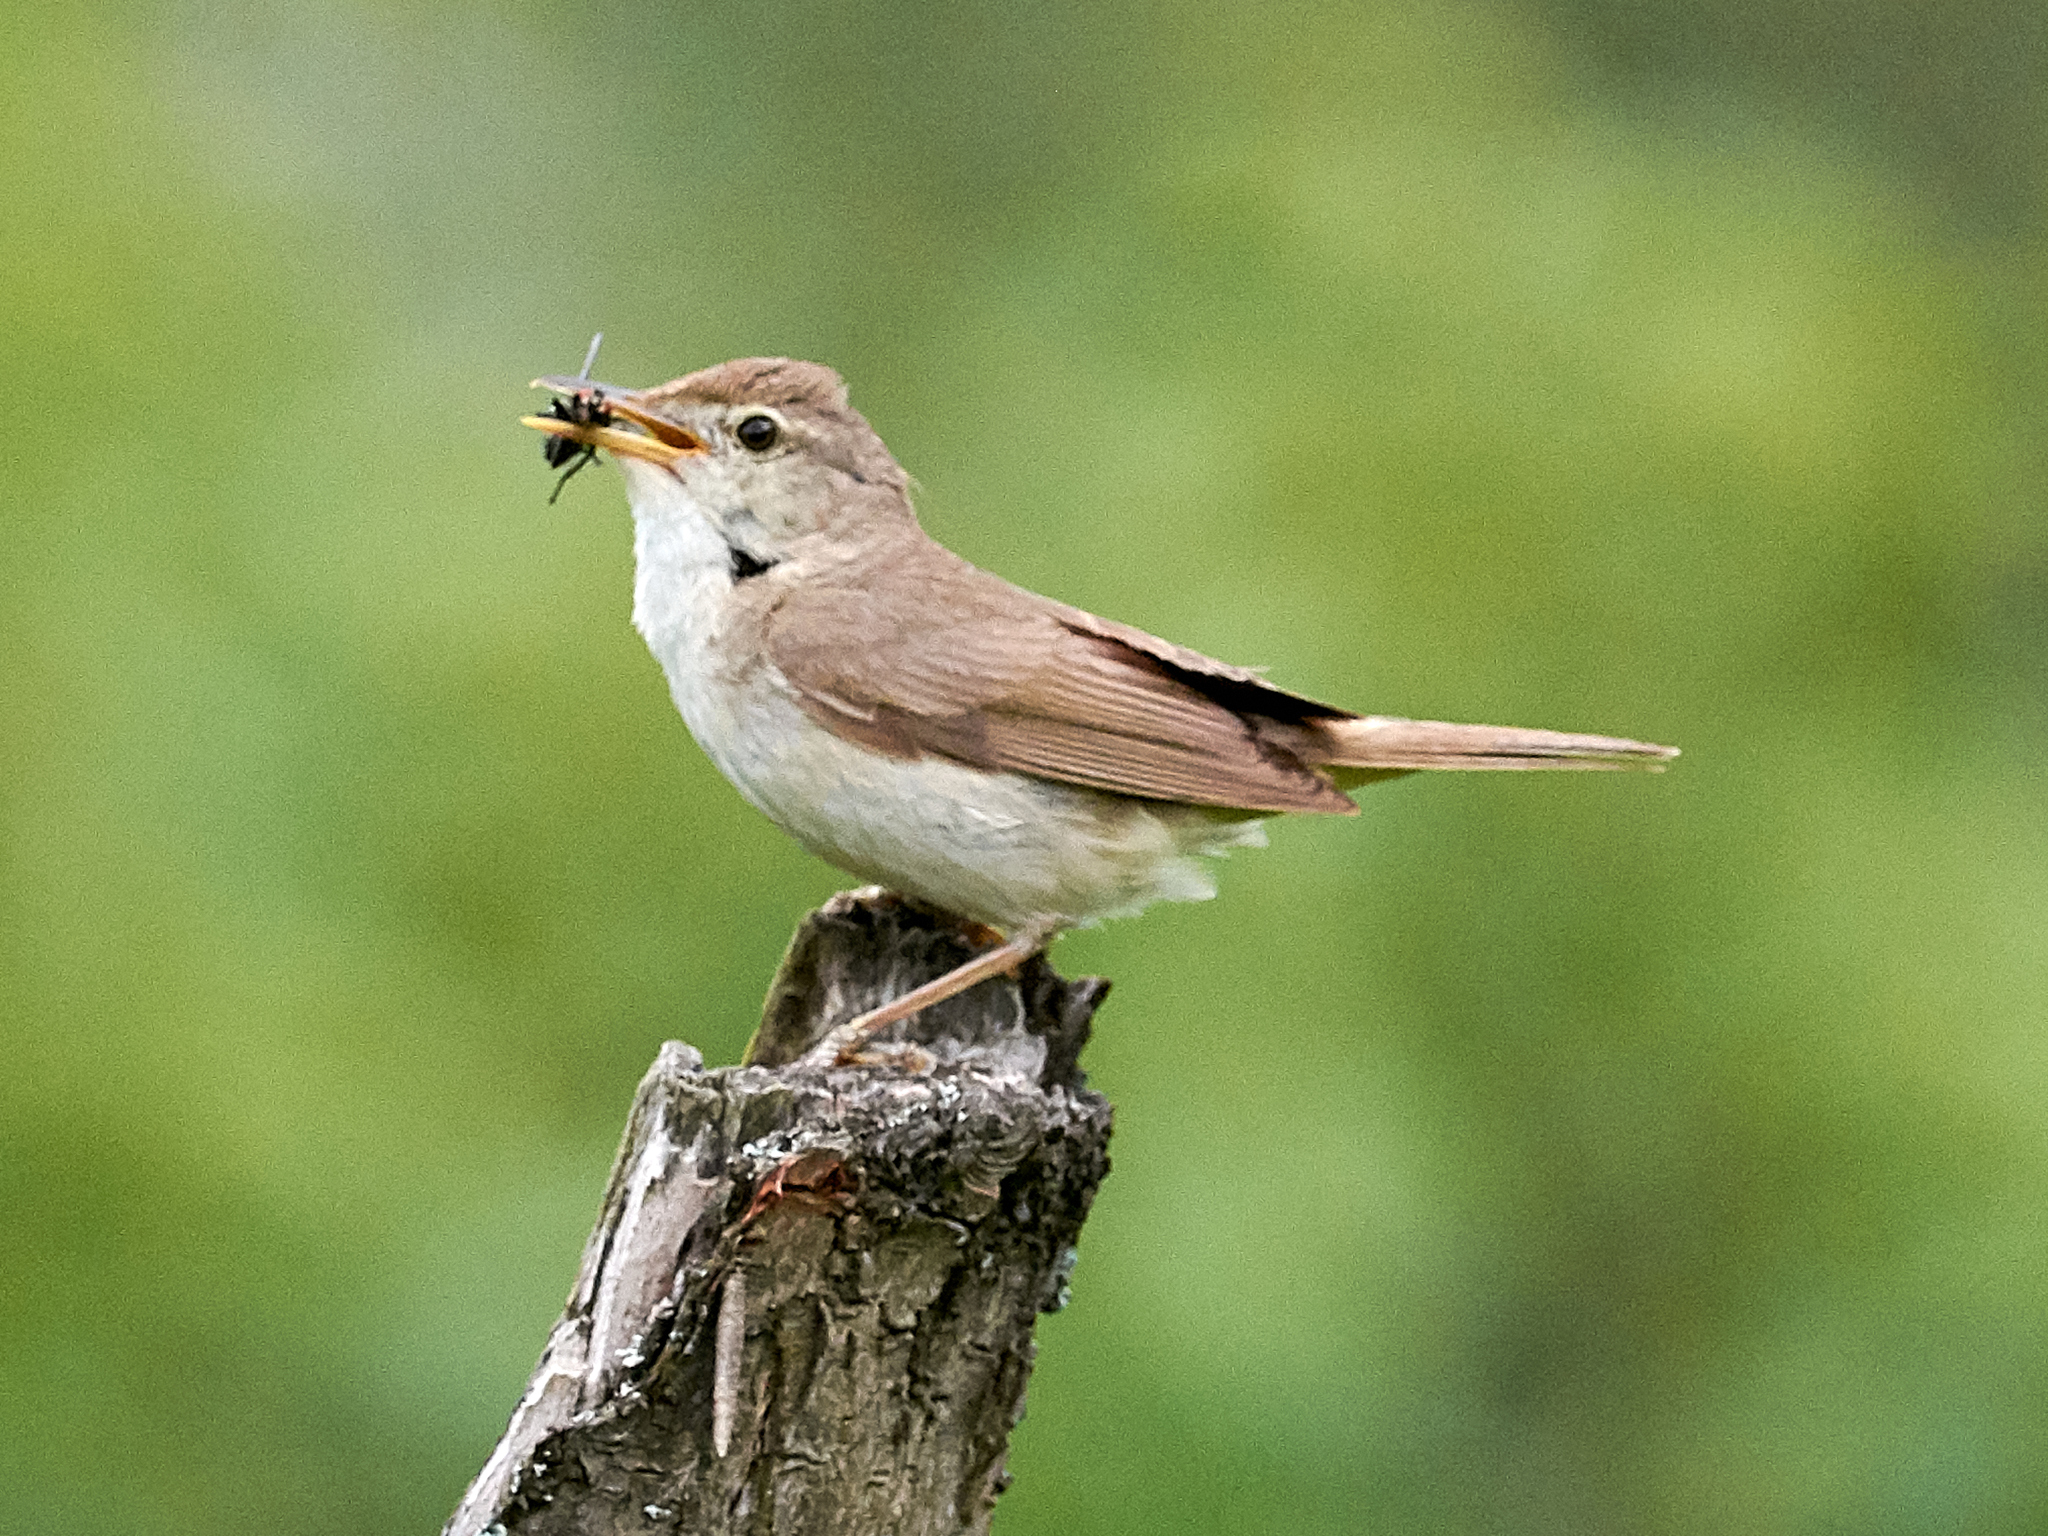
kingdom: Animalia
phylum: Chordata
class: Aves
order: Passeriformes
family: Acrocephalidae
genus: Acrocephalus
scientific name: Acrocephalus dumetorum
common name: Blyth's reed warbler
